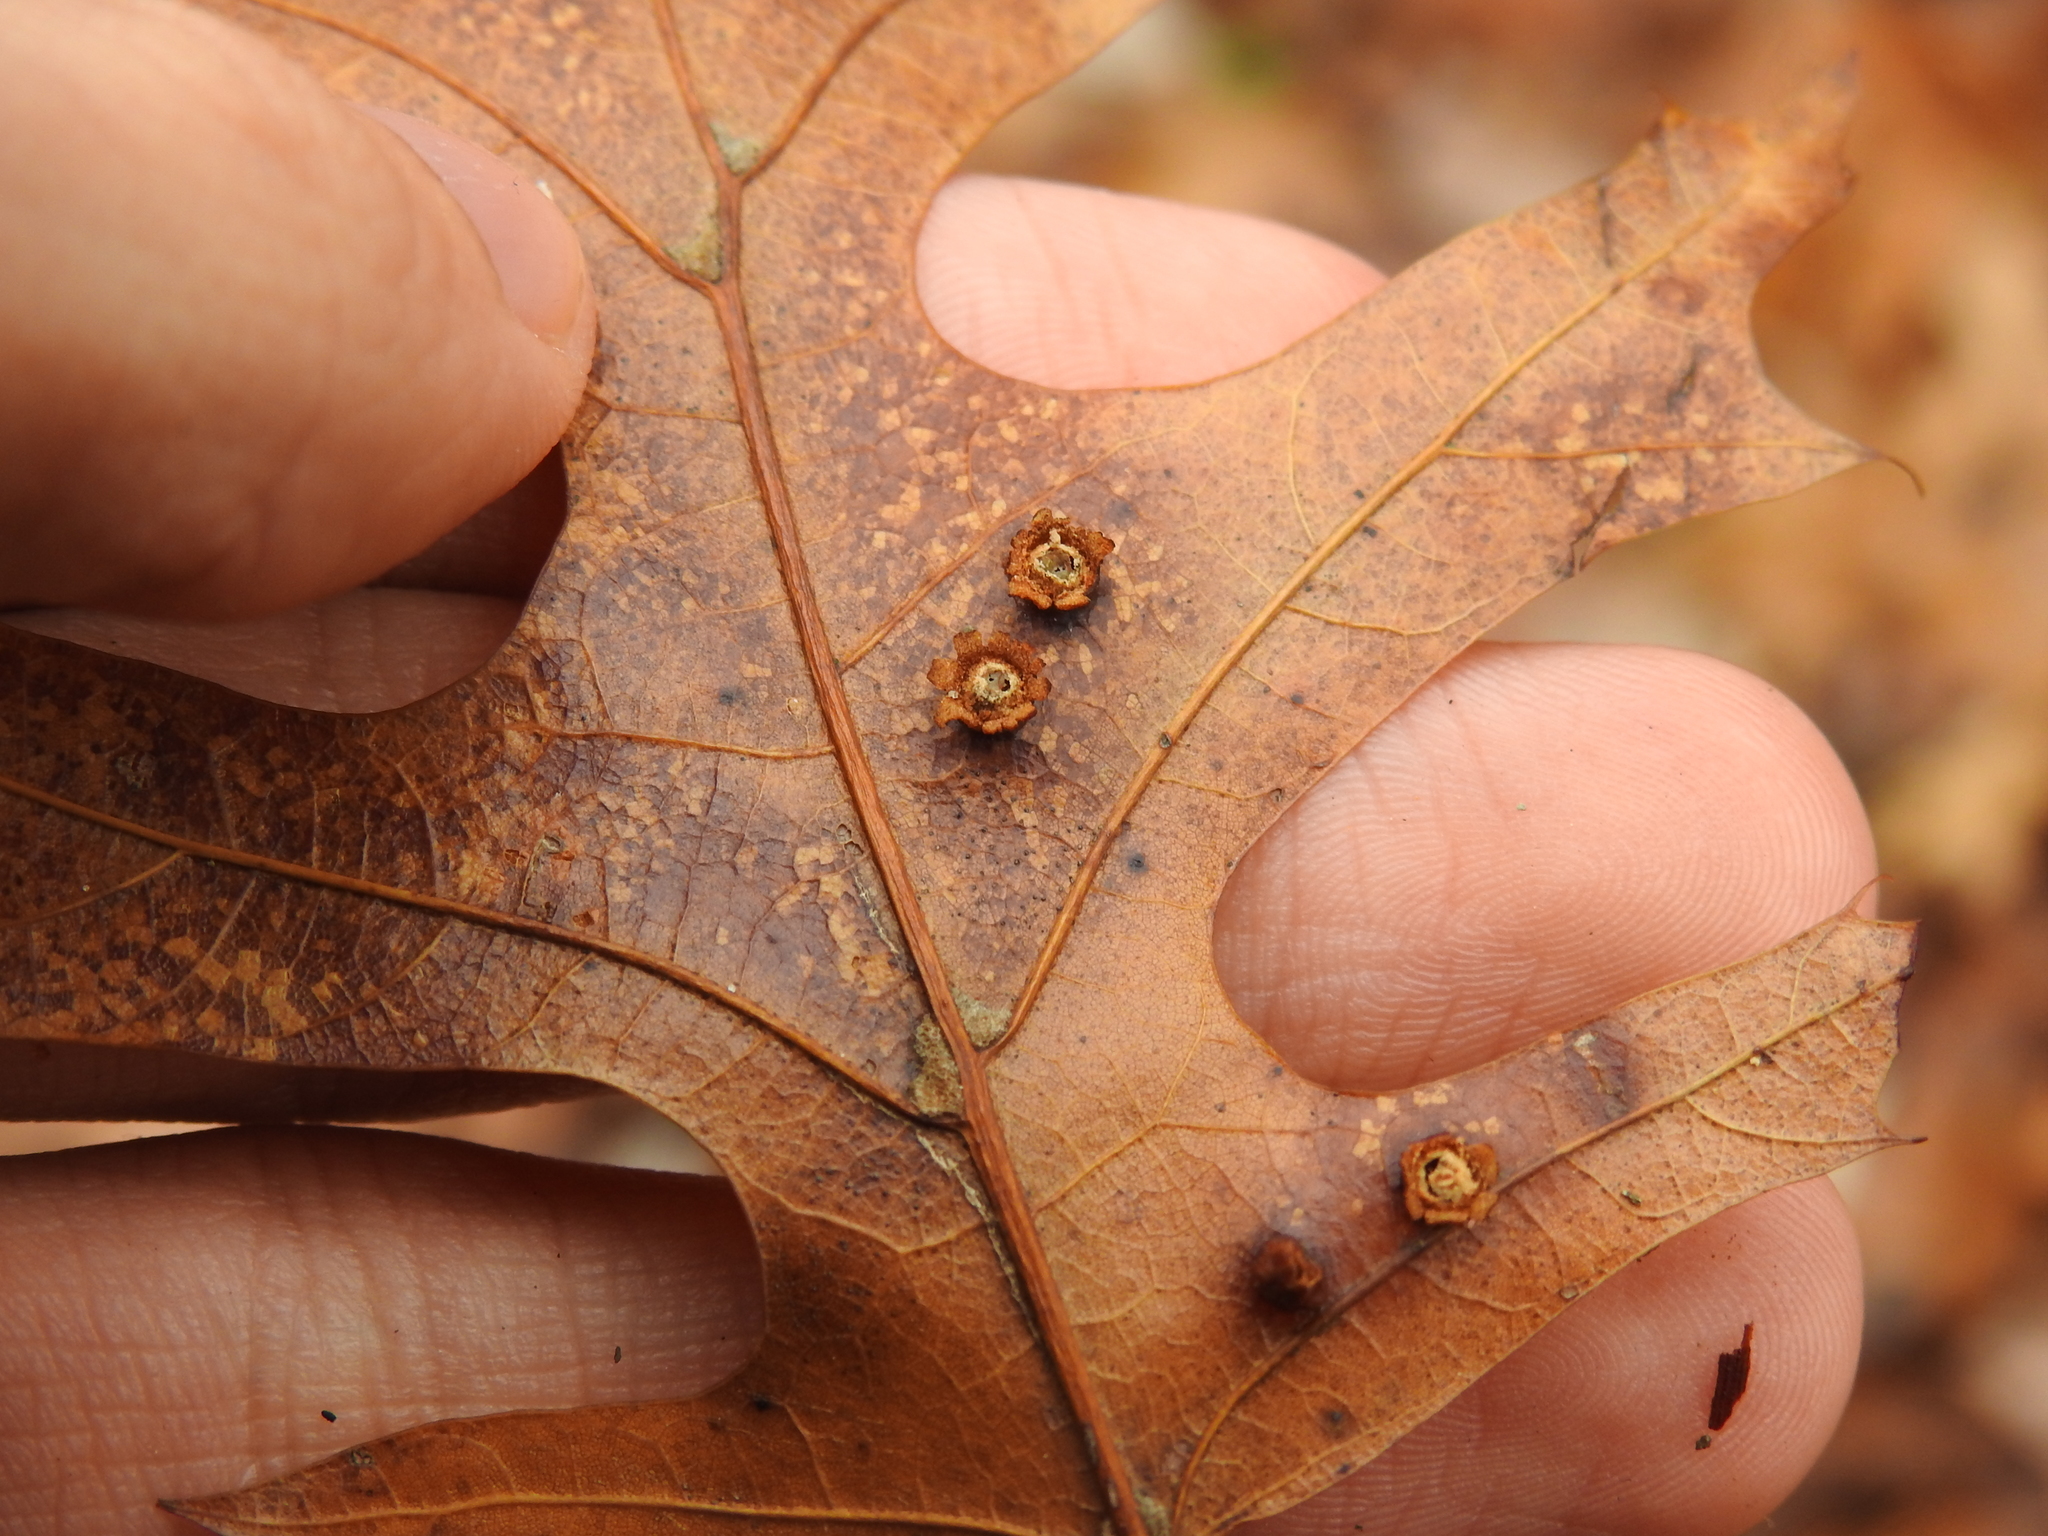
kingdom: Animalia
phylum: Arthropoda
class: Insecta
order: Diptera
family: Cecidomyiidae
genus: Polystepha
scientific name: Polystepha globosa
